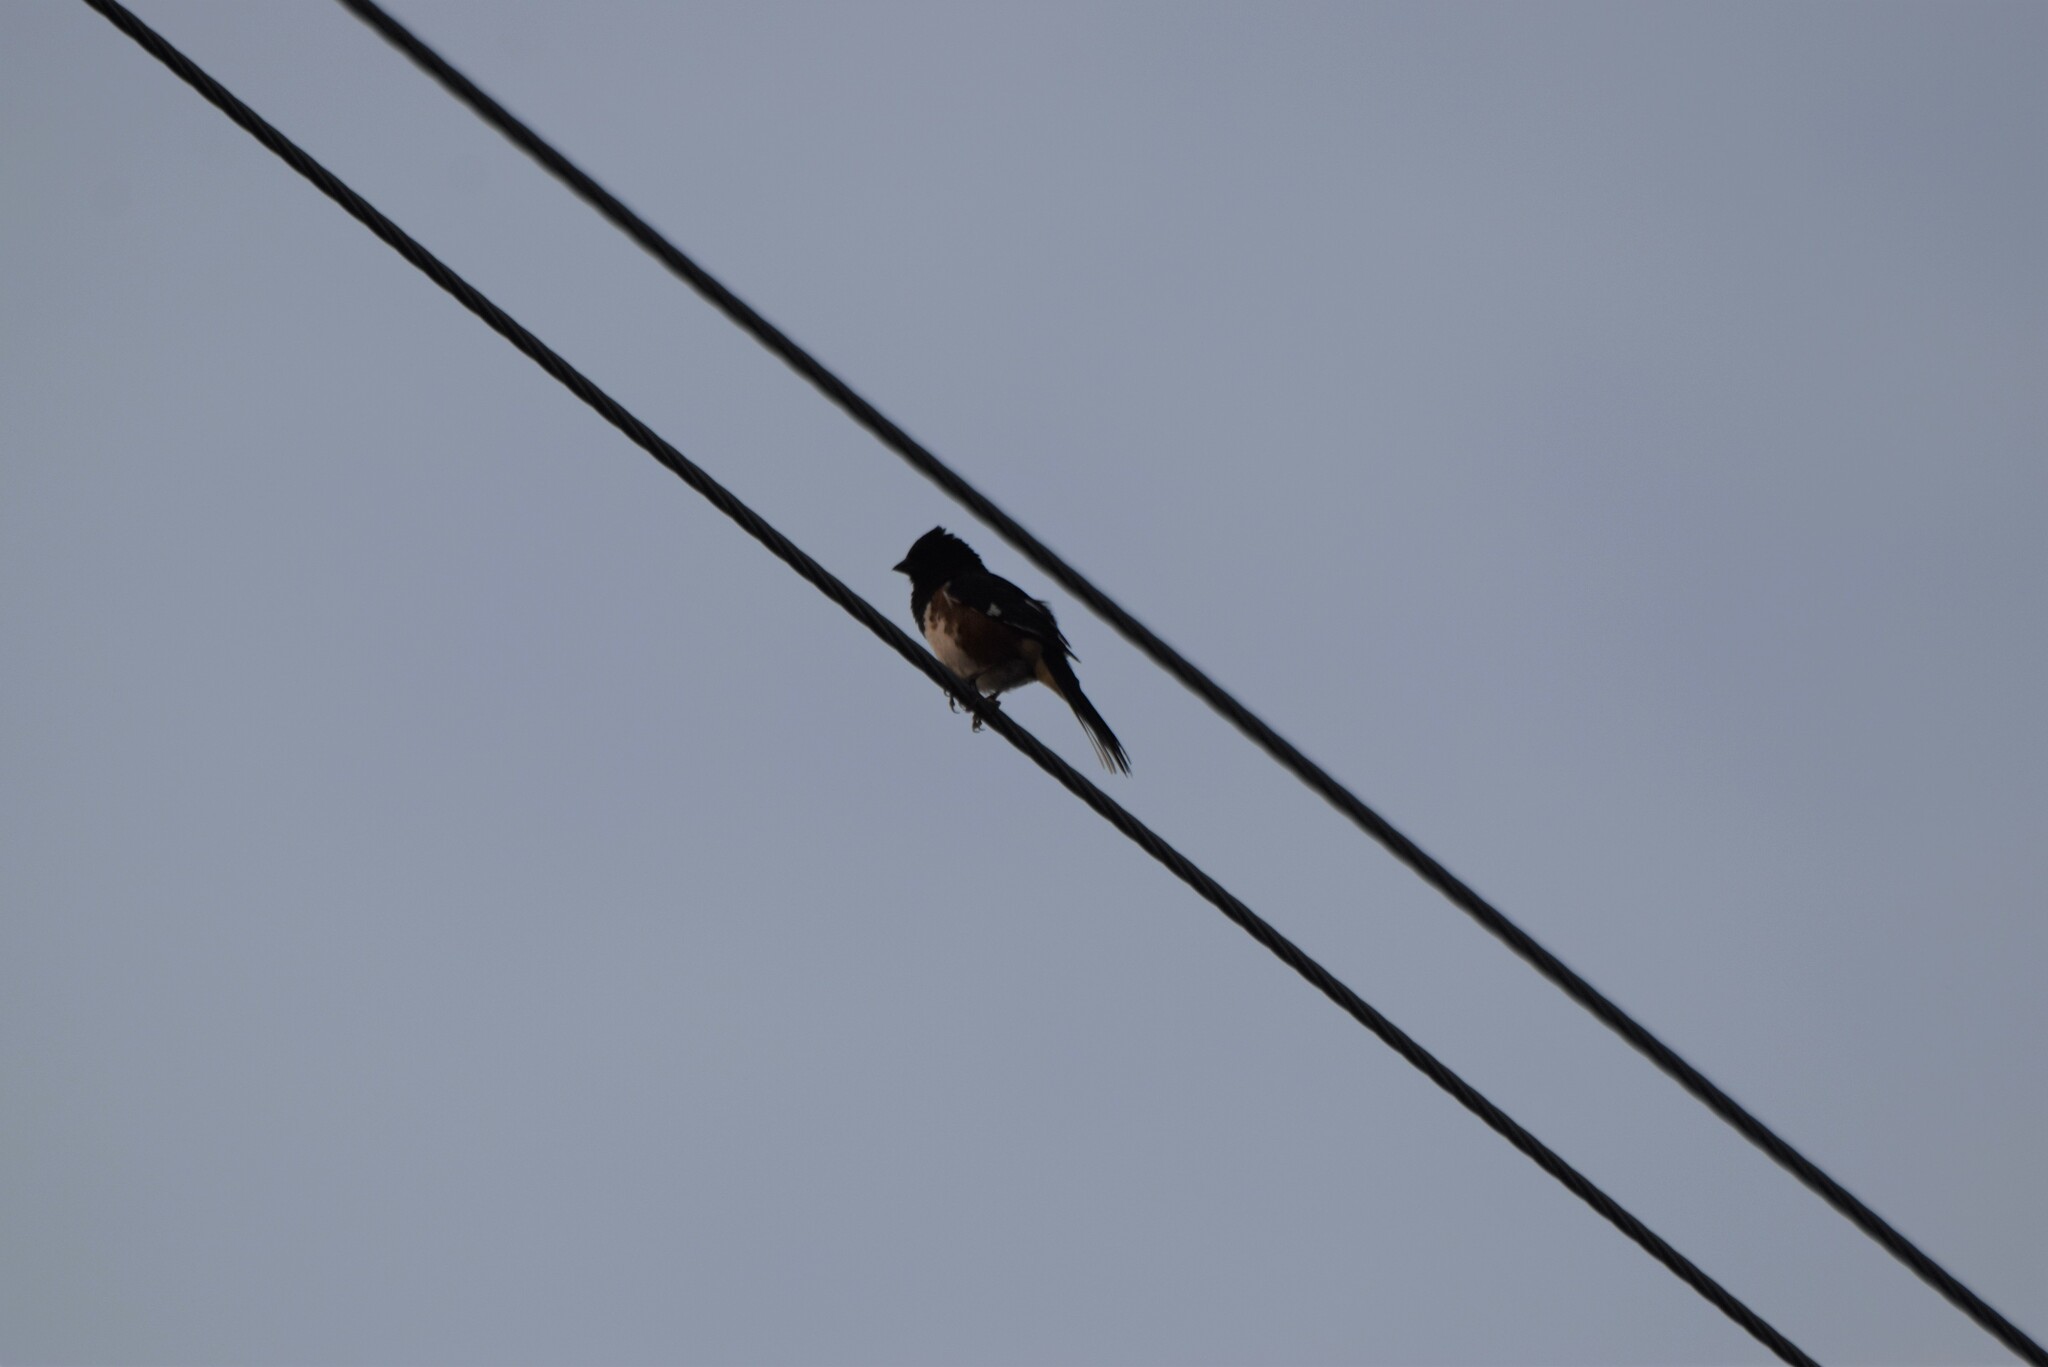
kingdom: Animalia
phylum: Chordata
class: Aves
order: Passeriformes
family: Passerellidae
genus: Pipilo
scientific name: Pipilo erythrophthalmus
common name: Eastern towhee
